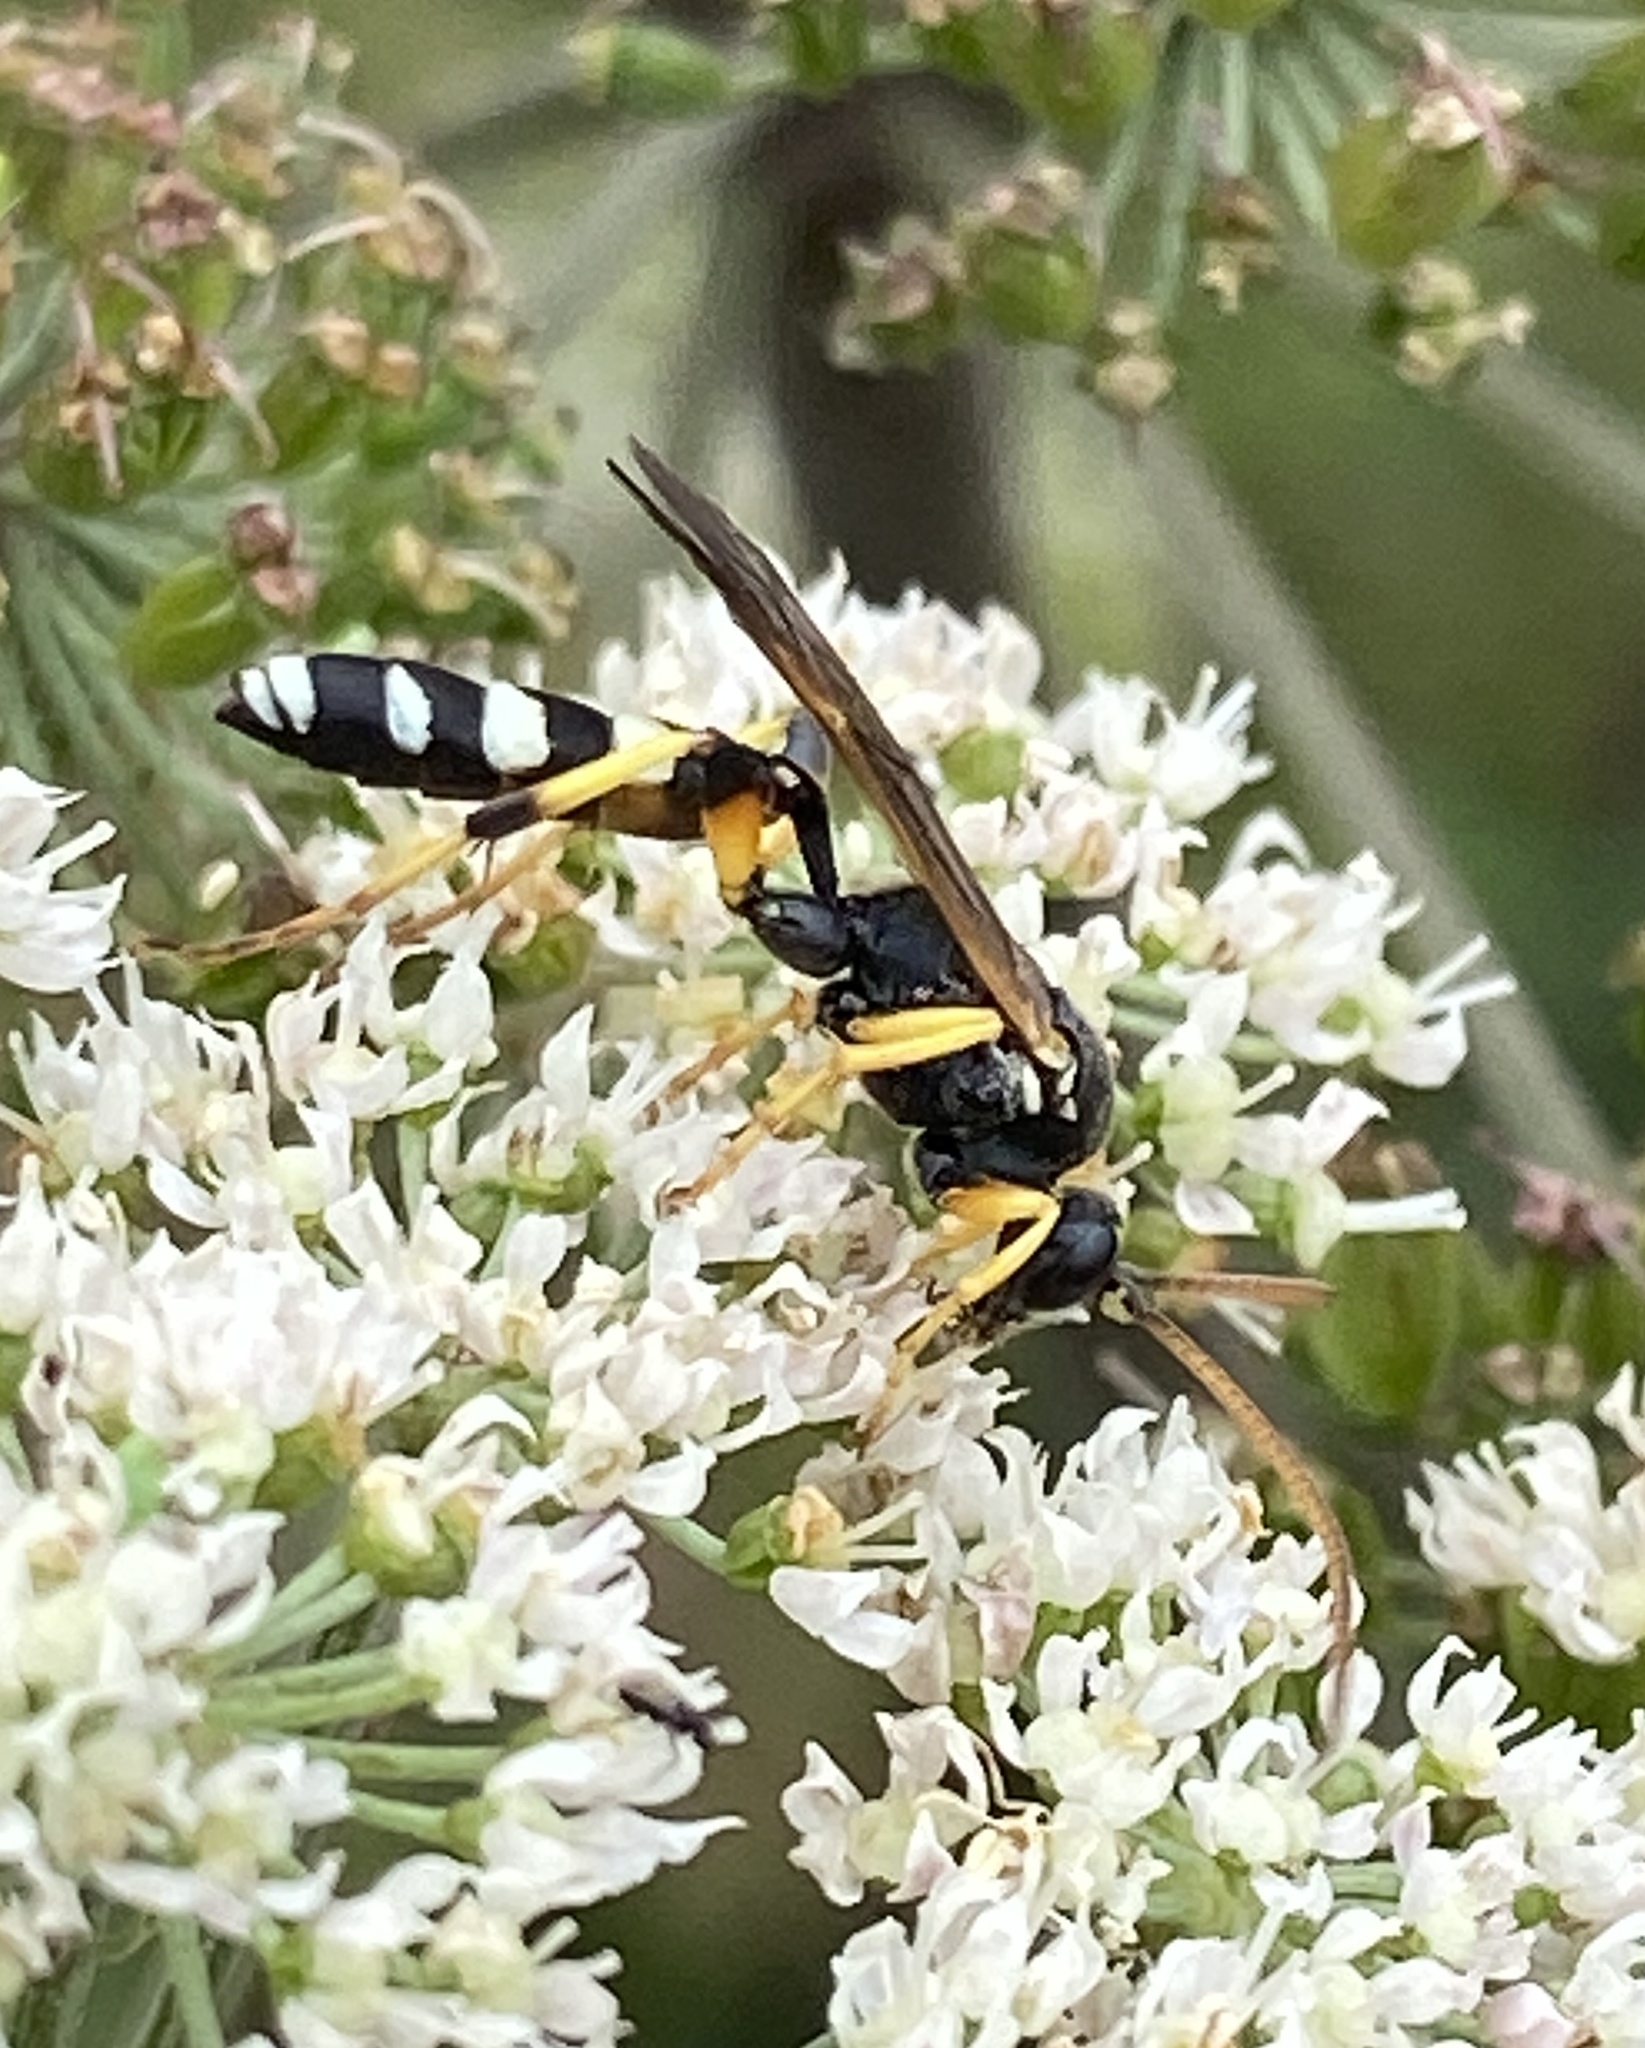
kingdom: Animalia
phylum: Arthropoda
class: Insecta
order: Hymenoptera
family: Ichneumonidae
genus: Ichneumon
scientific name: Ichneumon sarcitorius
